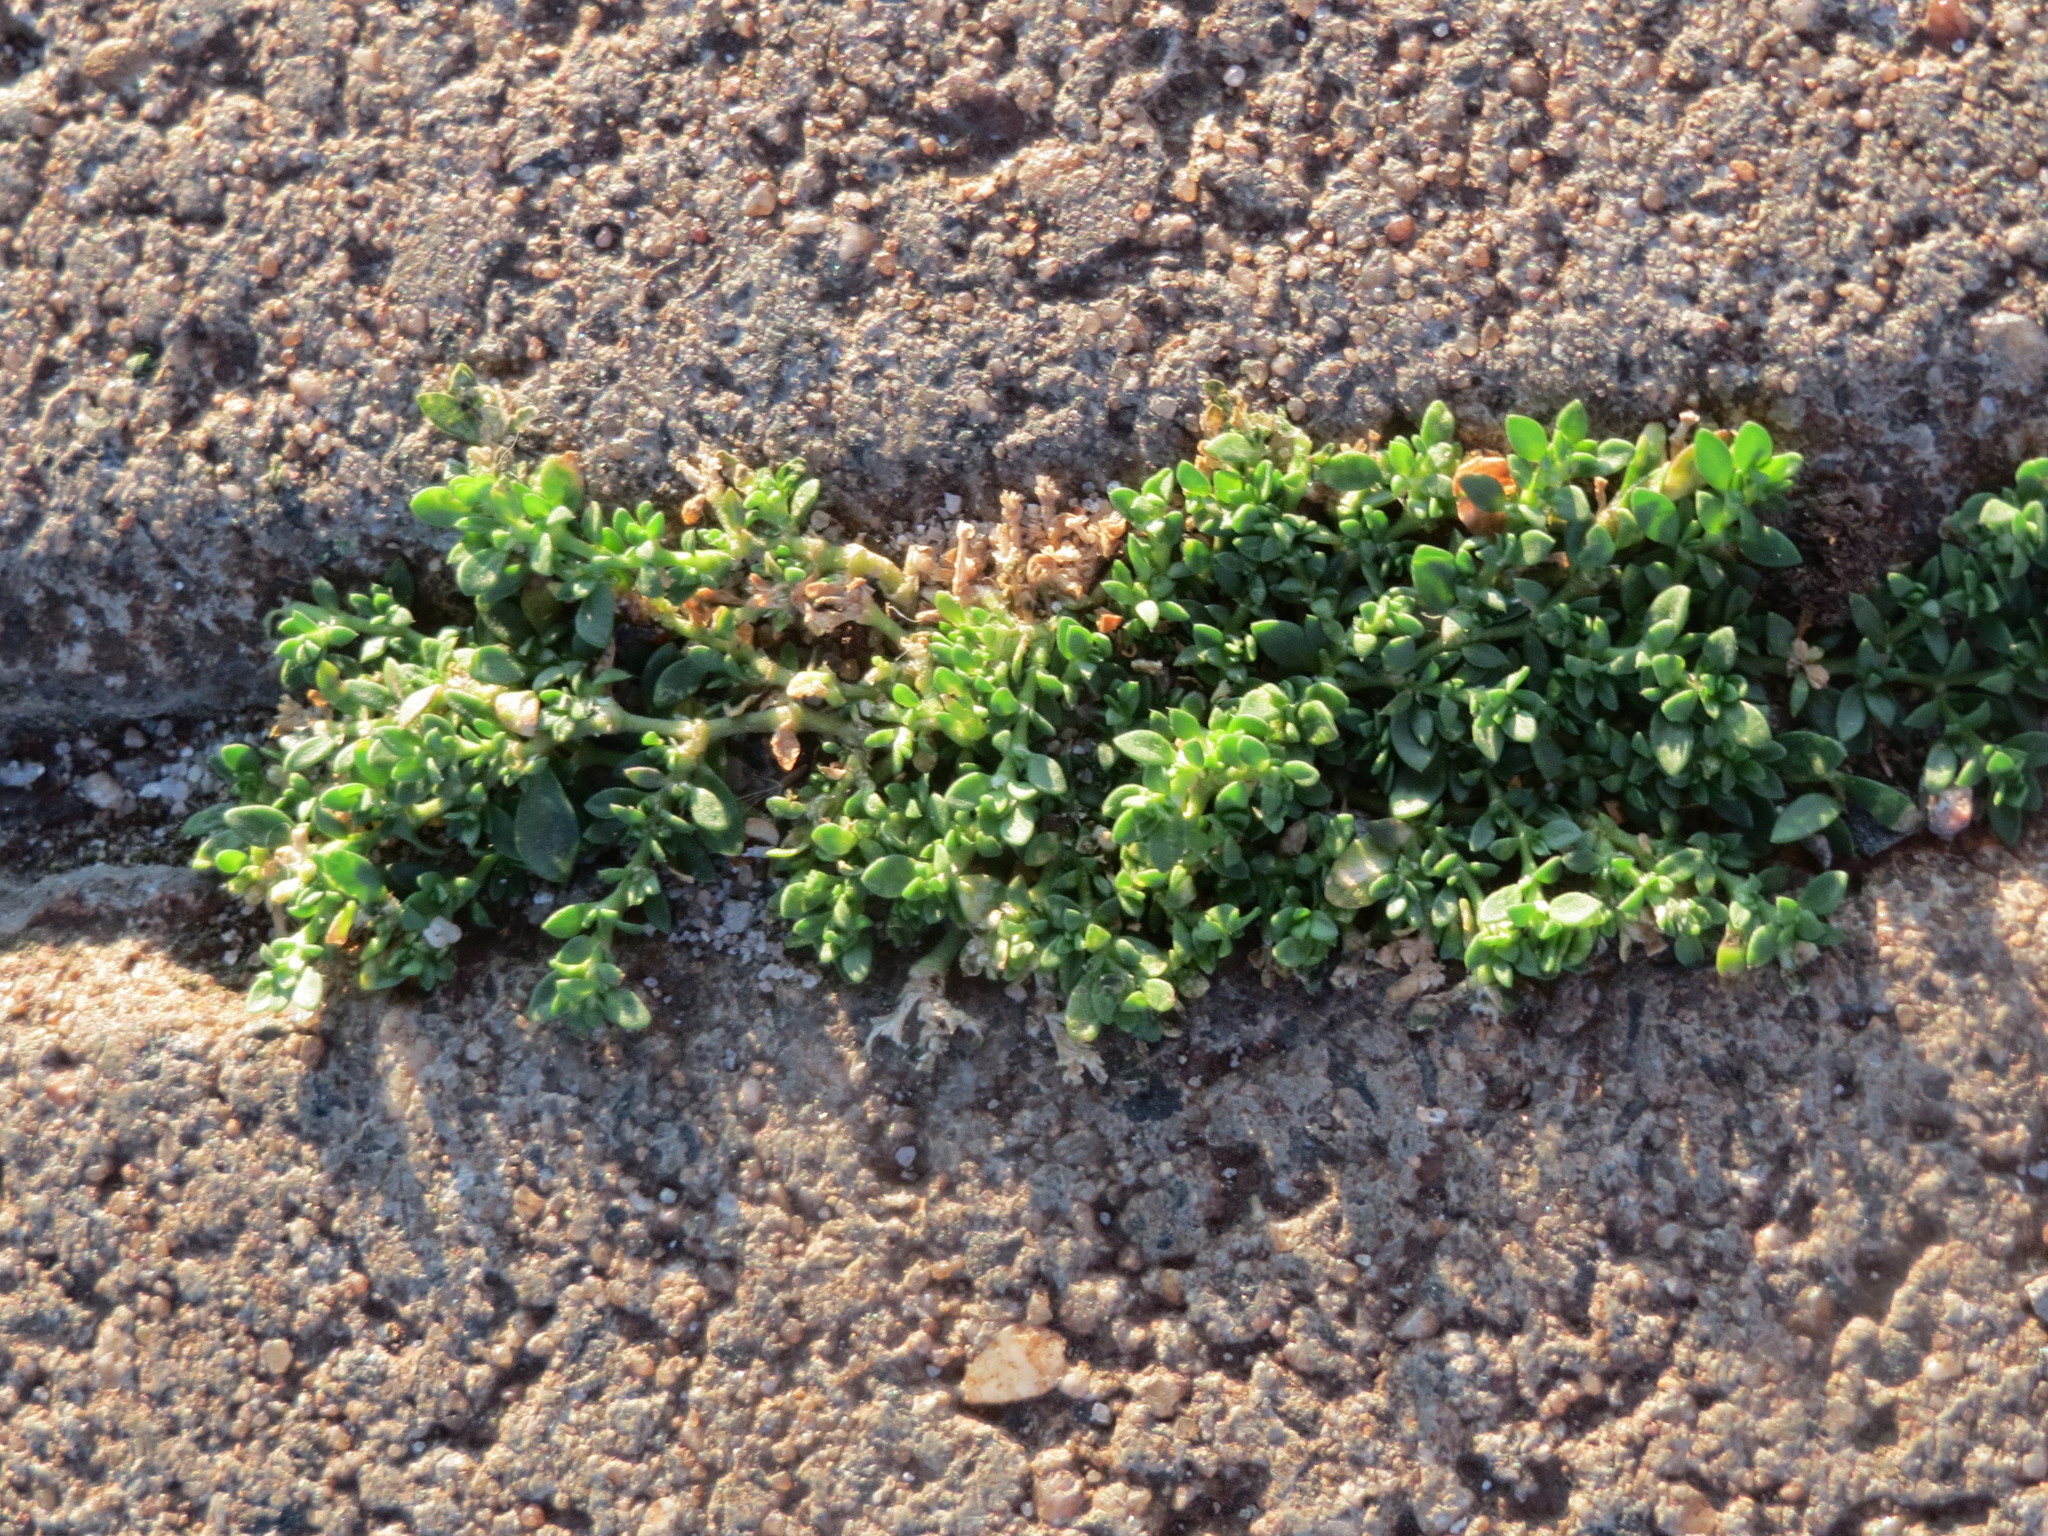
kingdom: Plantae
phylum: Tracheophyta
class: Magnoliopsida
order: Caryophyllales
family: Caryophyllaceae
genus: Herniaria
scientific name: Herniaria glabra
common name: Smooth rupturewort
